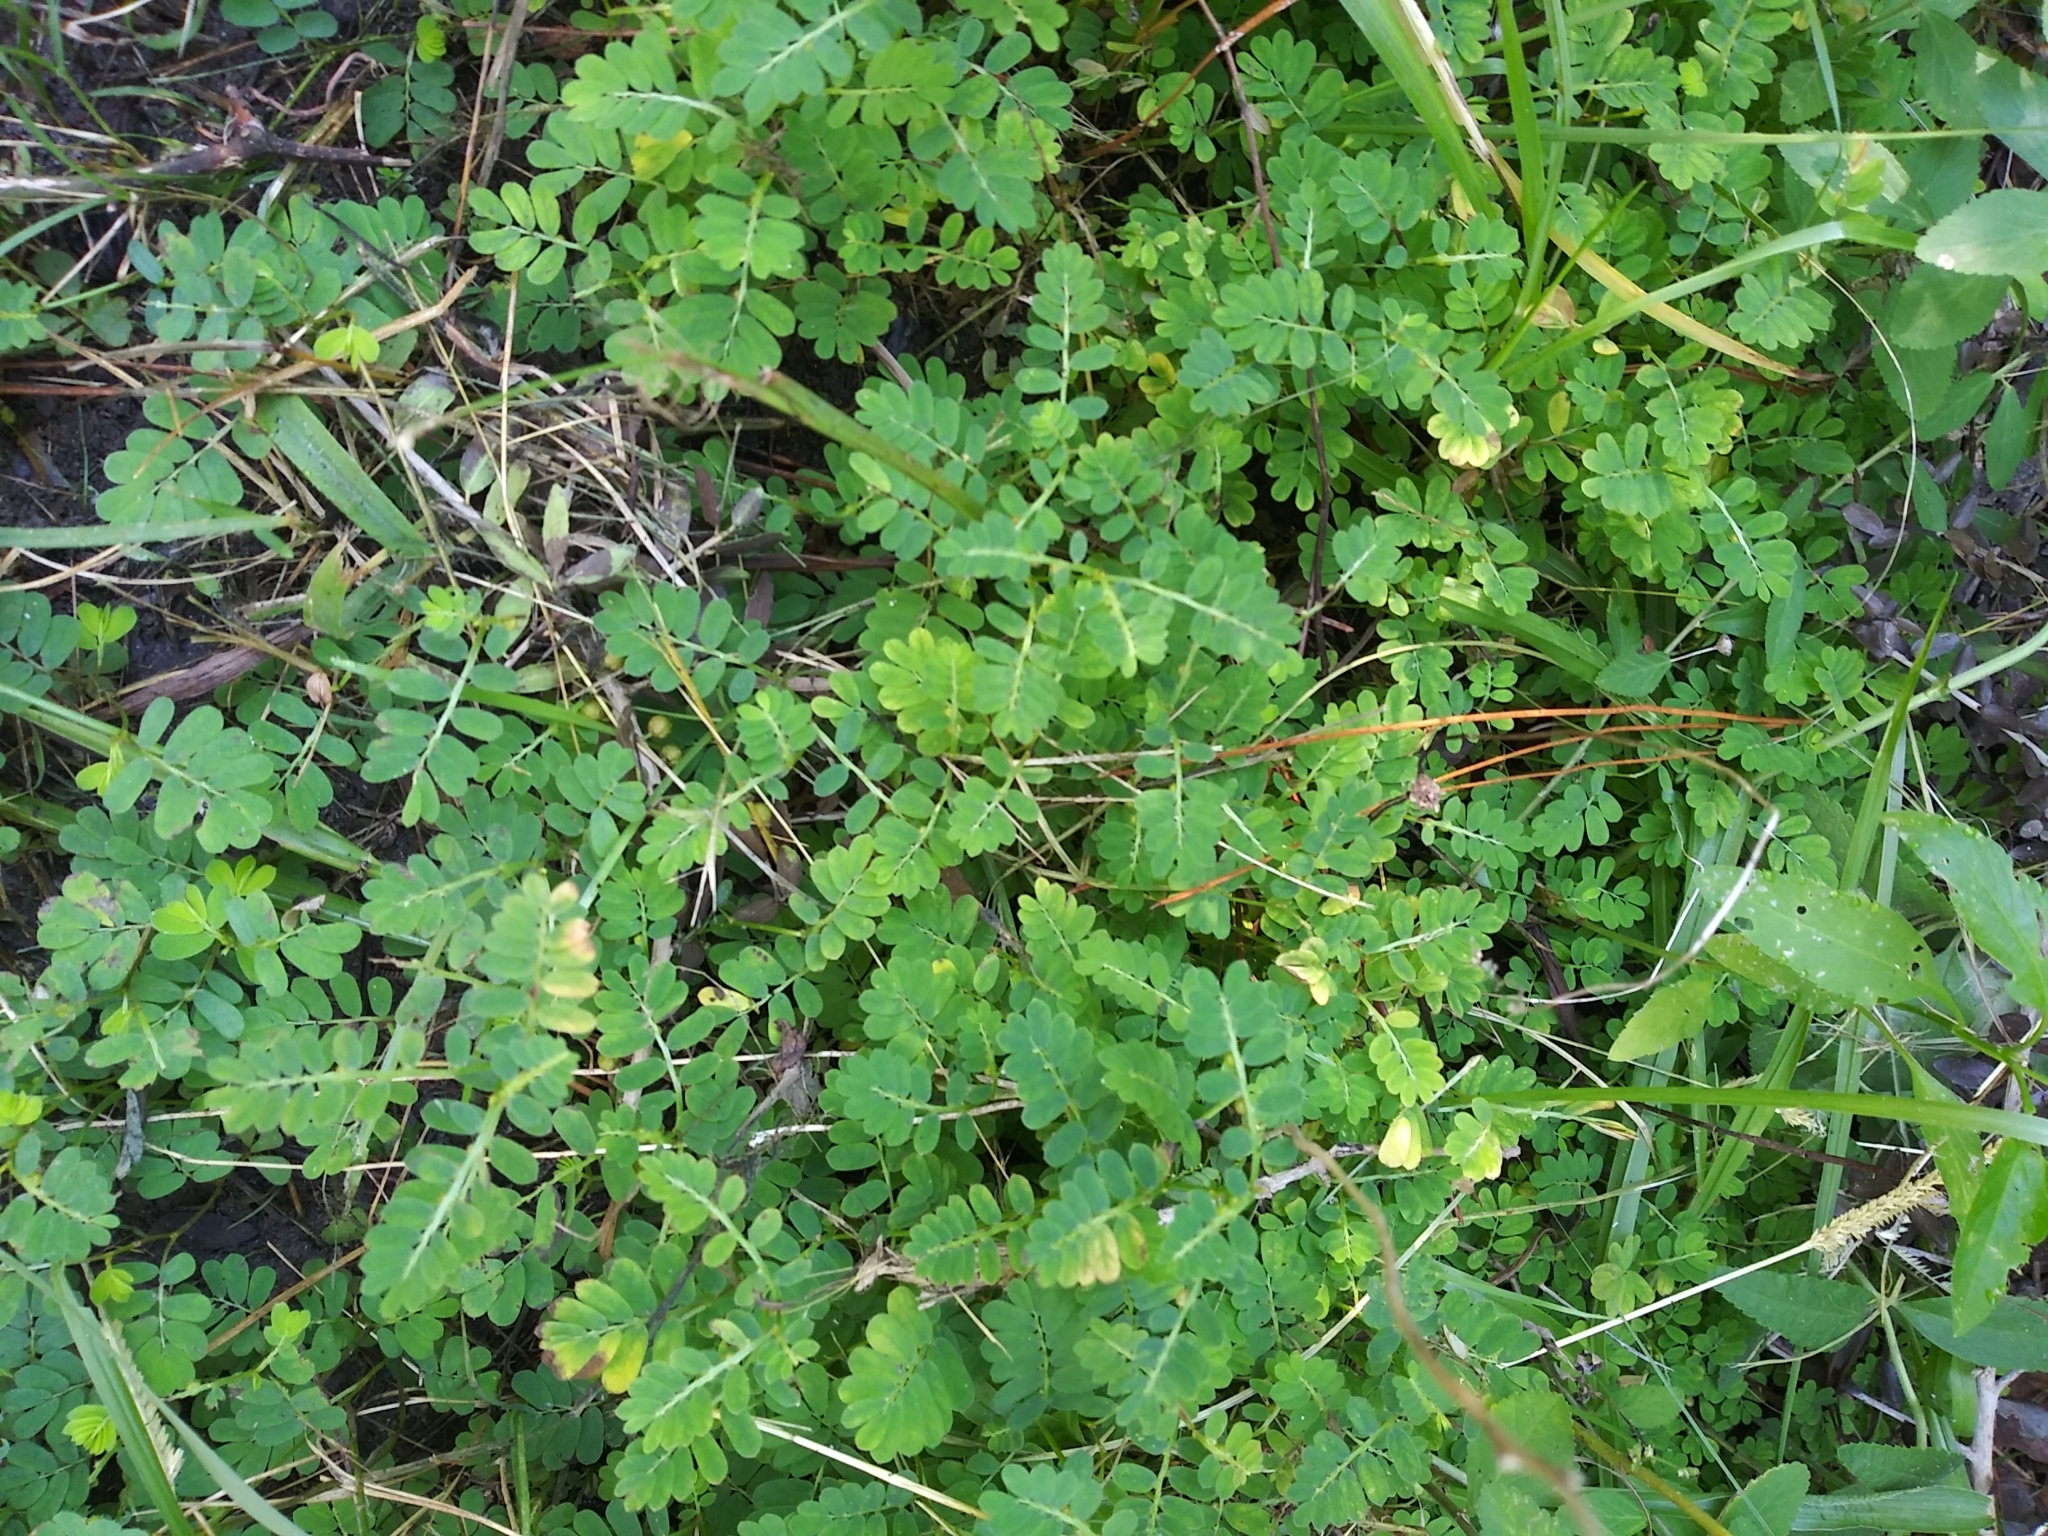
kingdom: Plantae
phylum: Tracheophyta
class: Magnoliopsida
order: Malpighiales
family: Phyllanthaceae
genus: Phyllanthus
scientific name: Phyllanthus urinaria
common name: Chamber bitter
